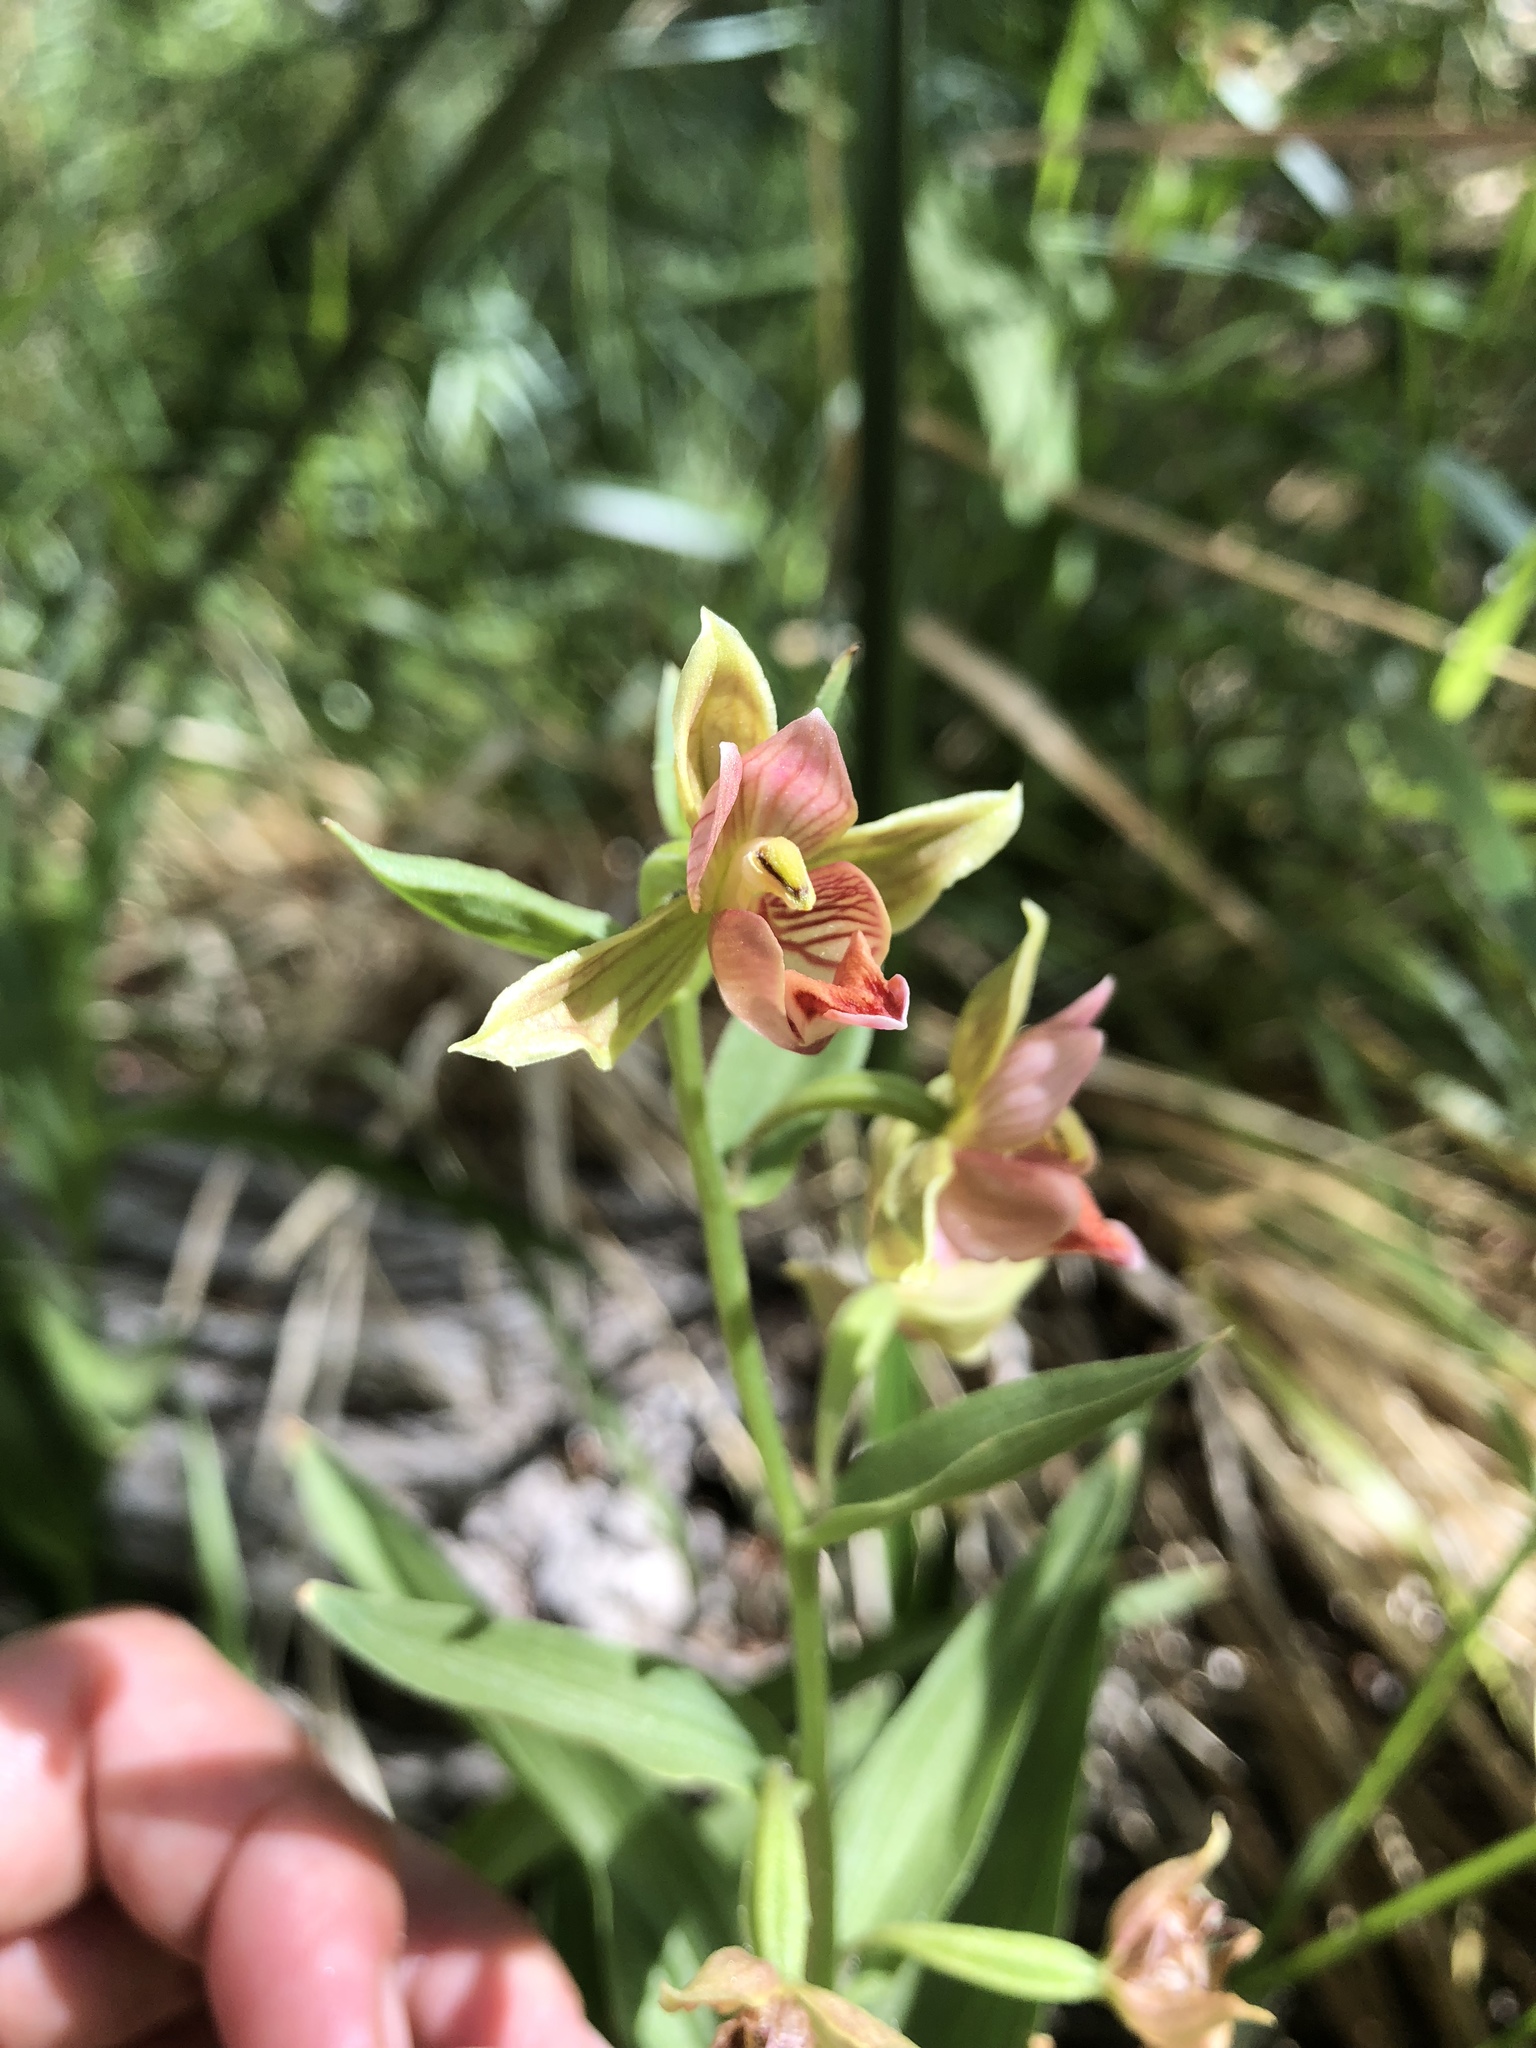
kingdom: Plantae
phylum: Tracheophyta
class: Liliopsida
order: Asparagales
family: Orchidaceae
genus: Epipactis
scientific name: Epipactis gigantea
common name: Chatterbox
